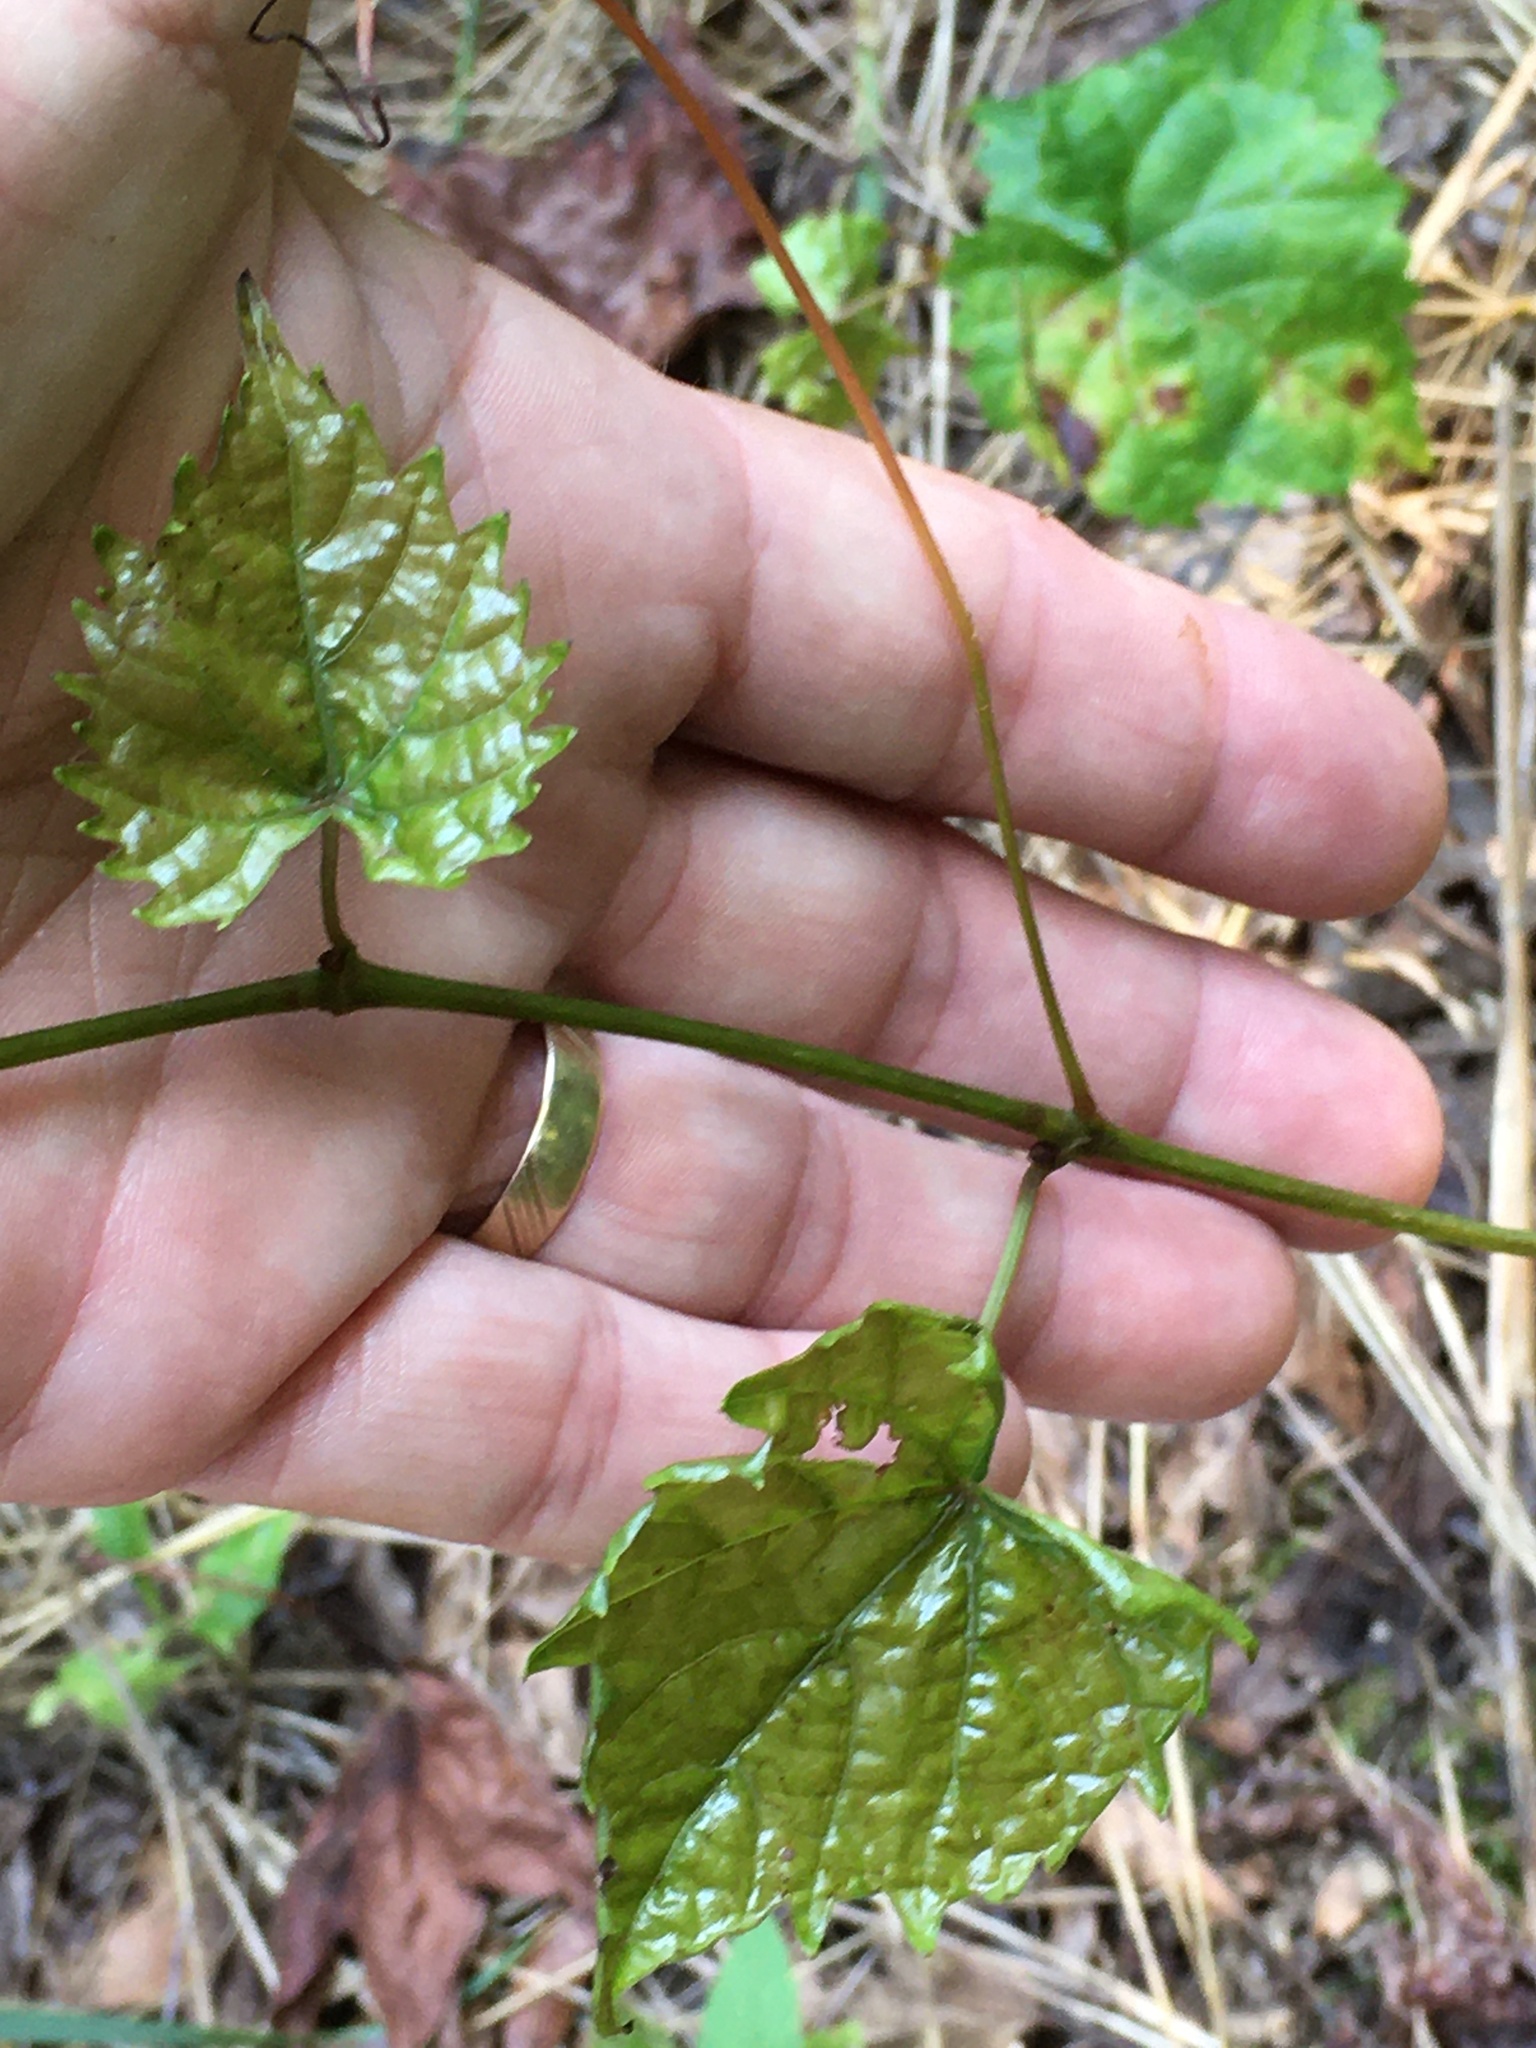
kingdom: Plantae
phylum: Tracheophyta
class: Magnoliopsida
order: Vitales
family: Vitaceae
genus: Vitis
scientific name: Vitis rotundifolia
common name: Muscadine grape
